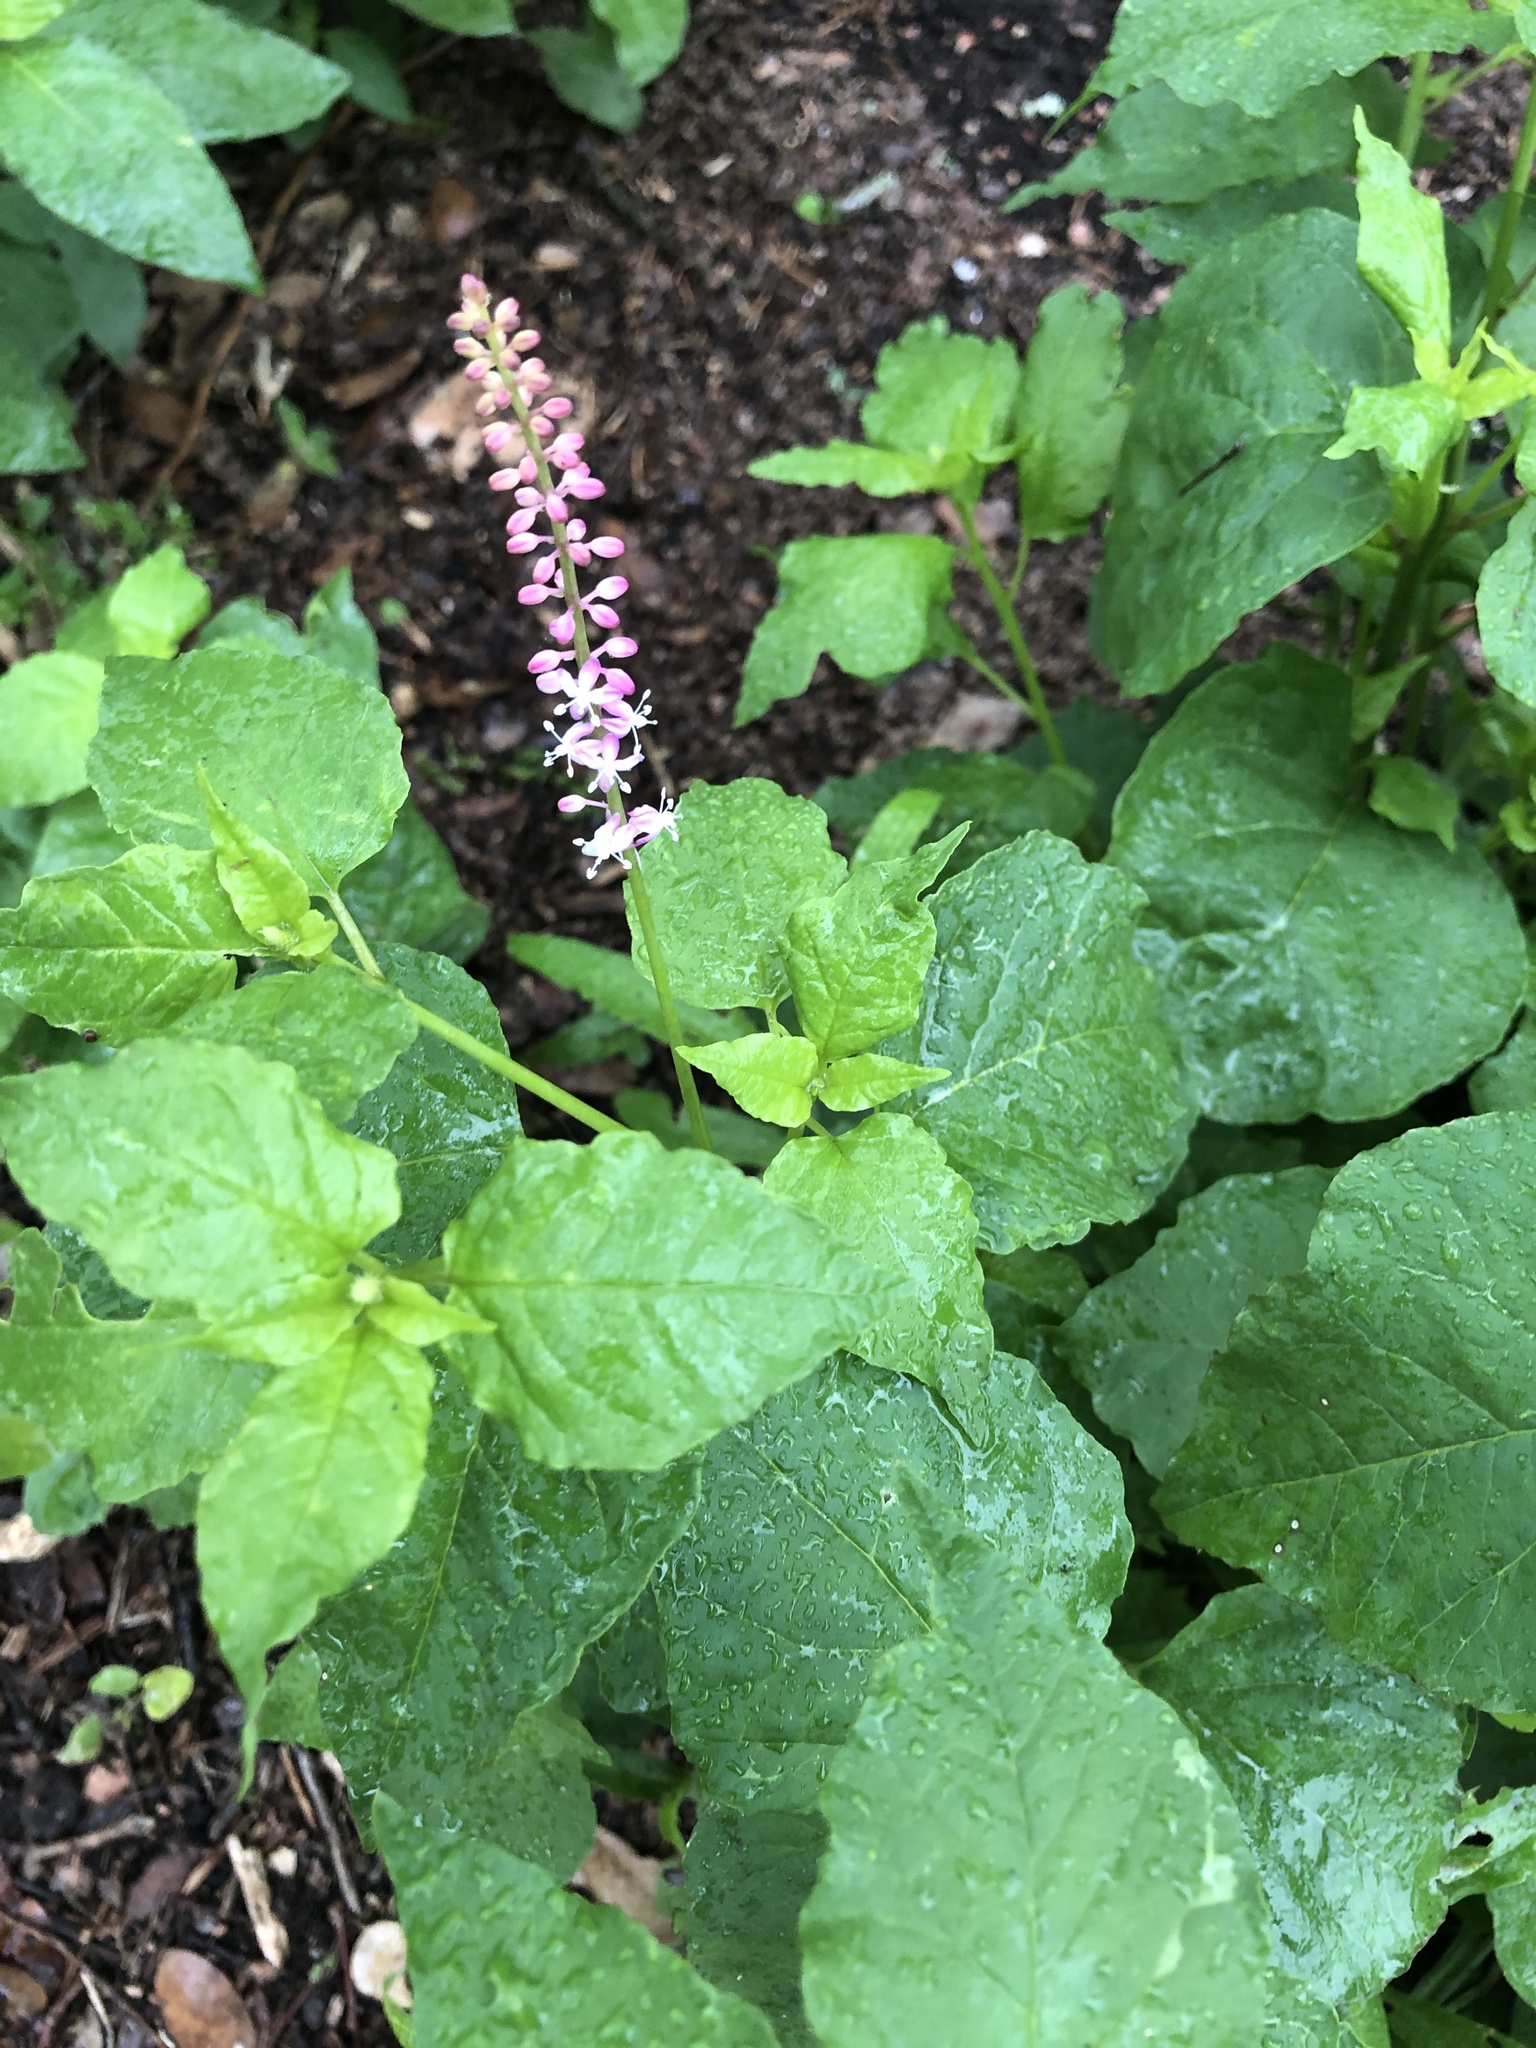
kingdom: Plantae
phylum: Tracheophyta
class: Magnoliopsida
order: Caryophyllales
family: Phytolaccaceae
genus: Rivina
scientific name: Rivina humilis
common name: Rougeplant
